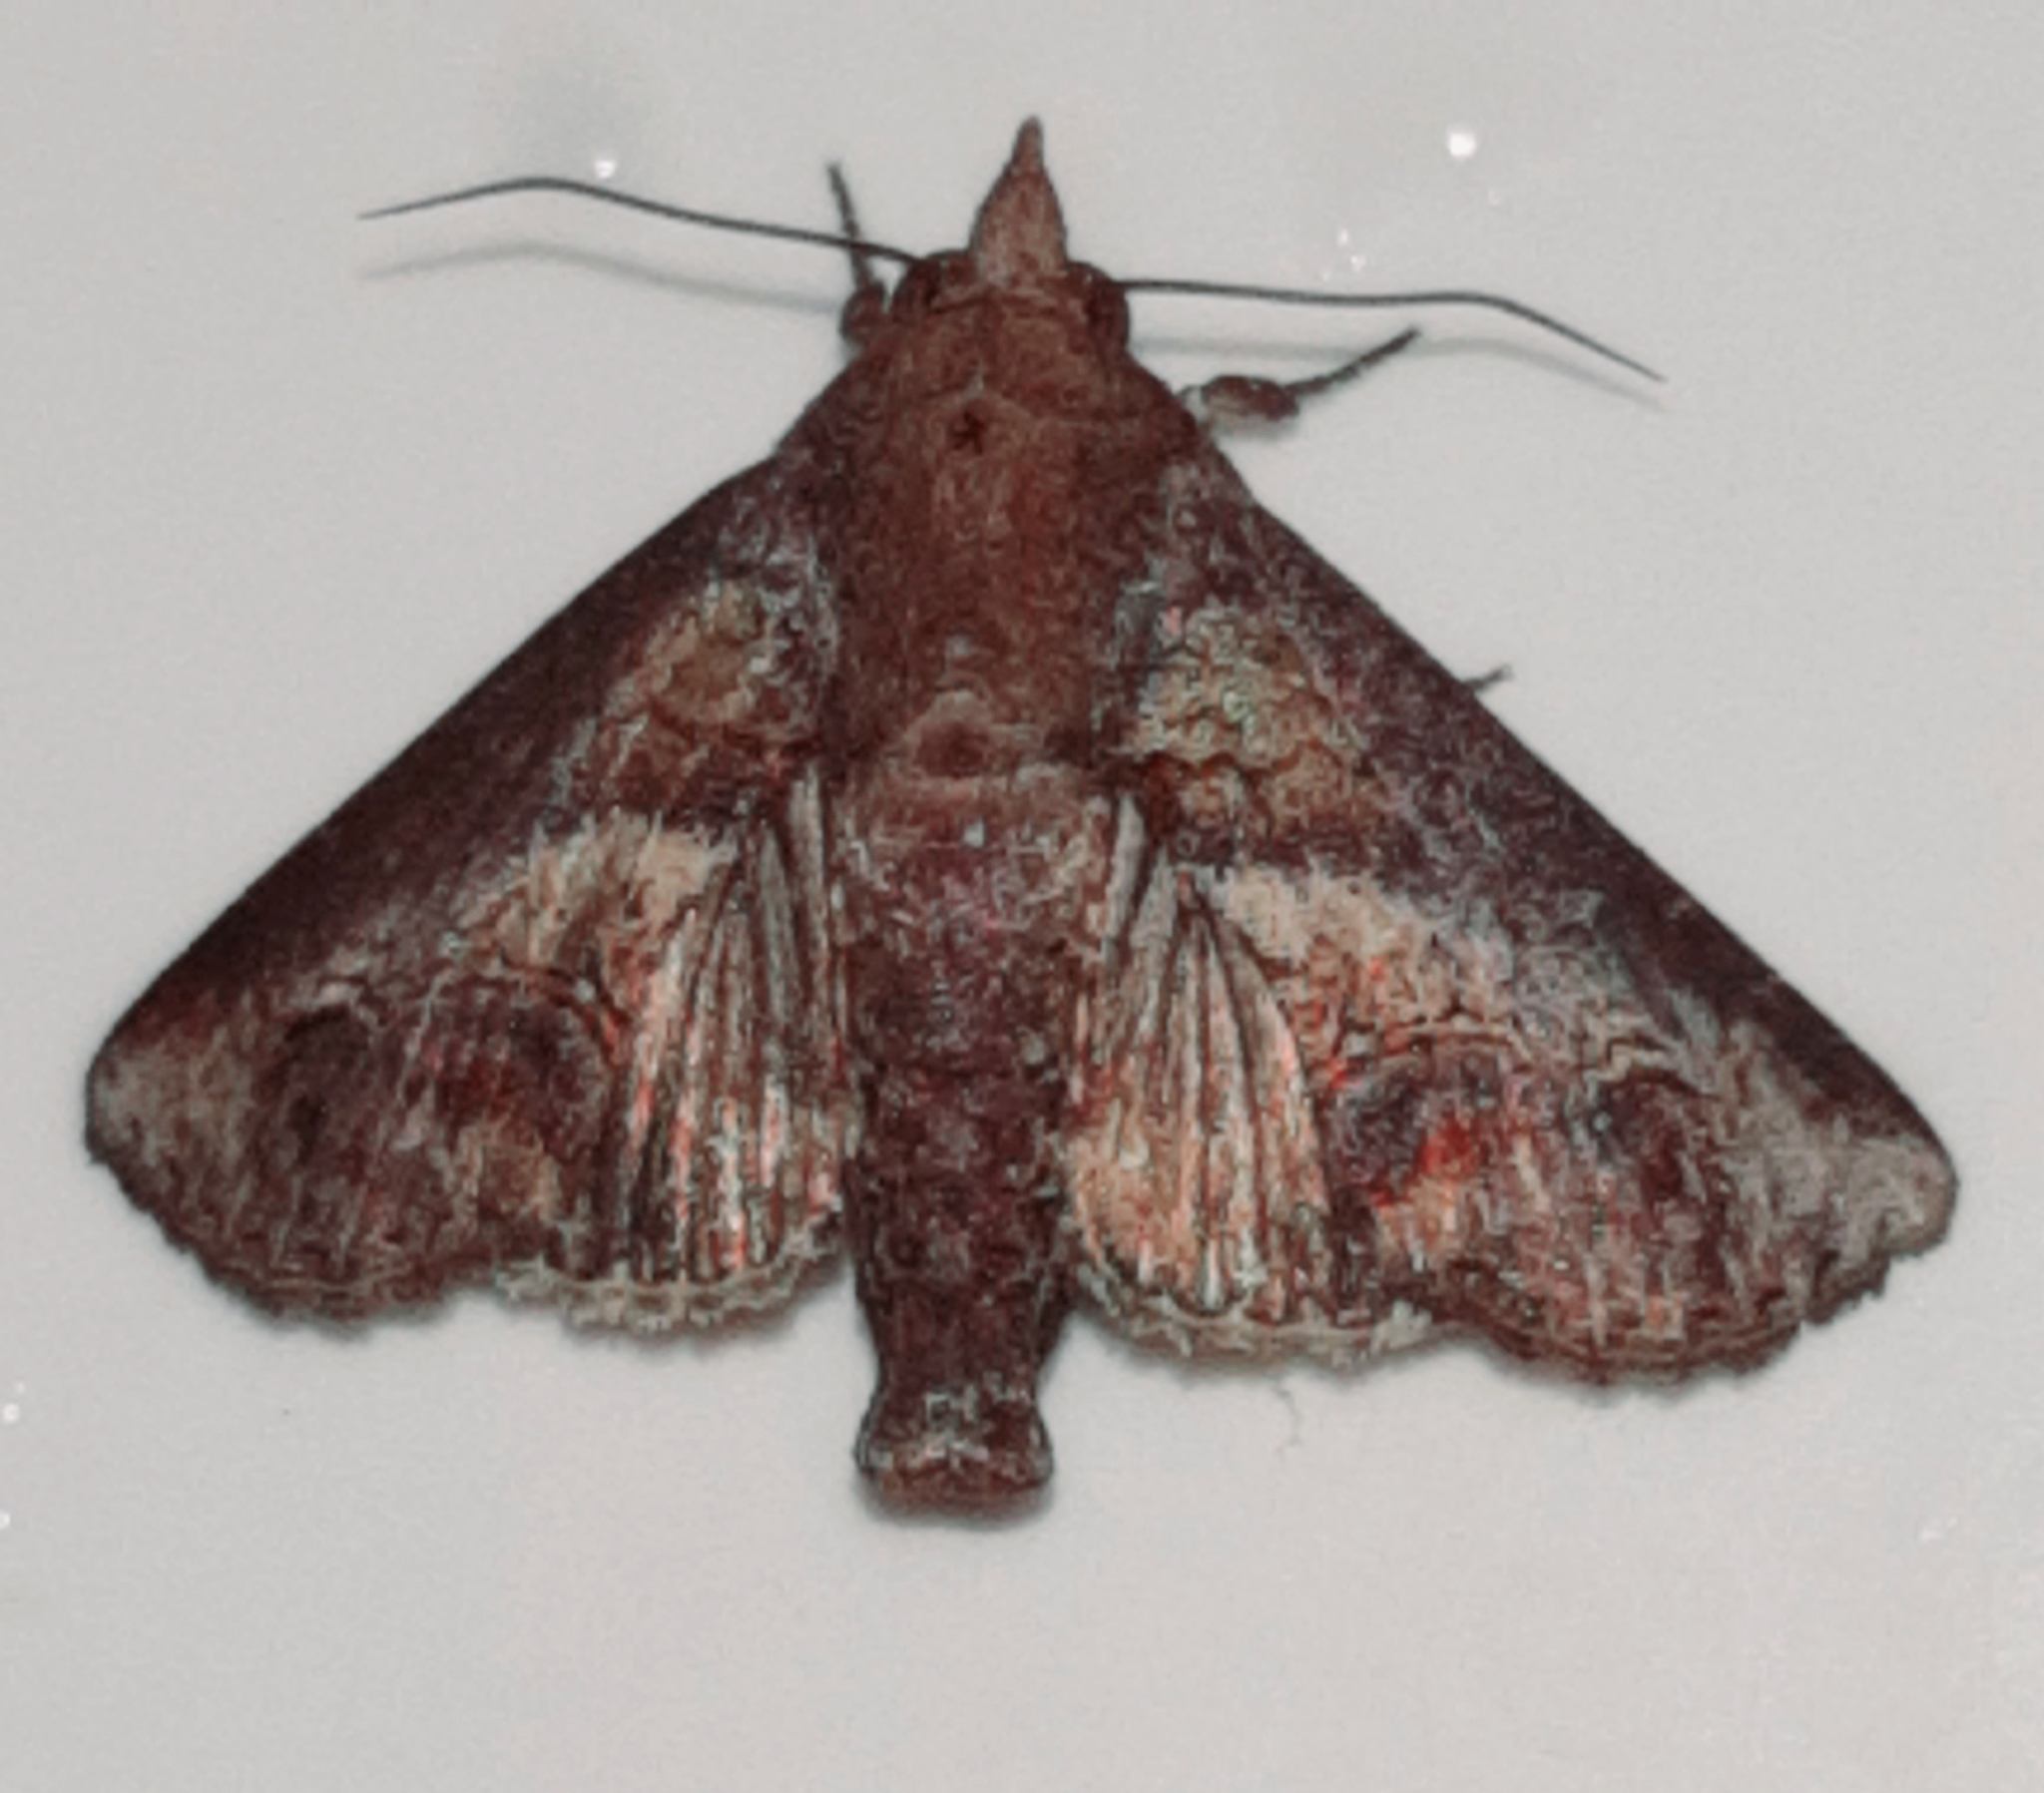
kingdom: Animalia
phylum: Arthropoda
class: Insecta
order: Lepidoptera
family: Euteliidae
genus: Paectes
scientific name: Paectes arcigera
